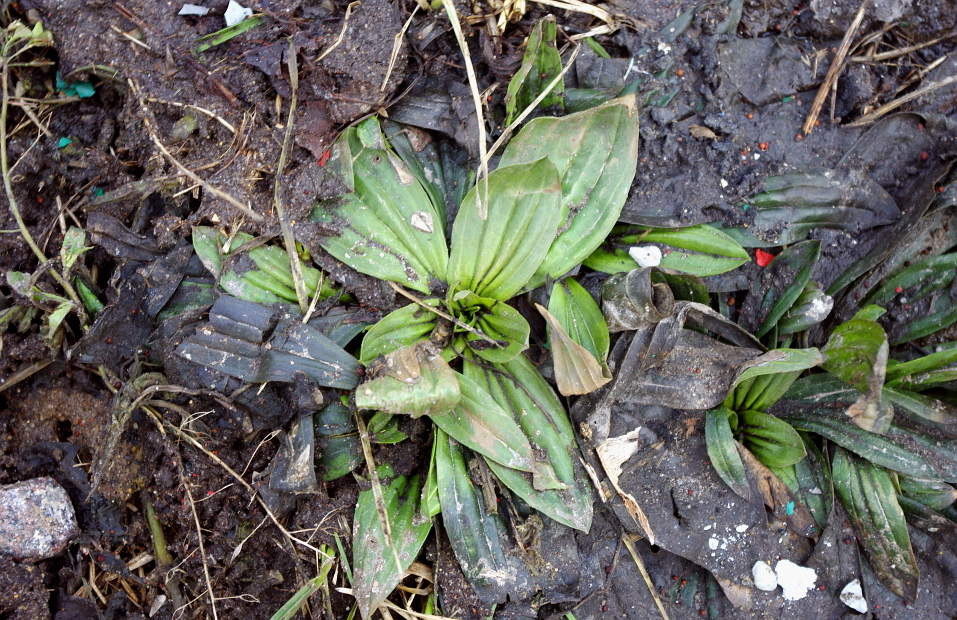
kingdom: Plantae
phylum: Tracheophyta
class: Magnoliopsida
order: Lamiales
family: Plantaginaceae
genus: Plantago
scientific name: Plantago lanceolata
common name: Ribwort plantain
